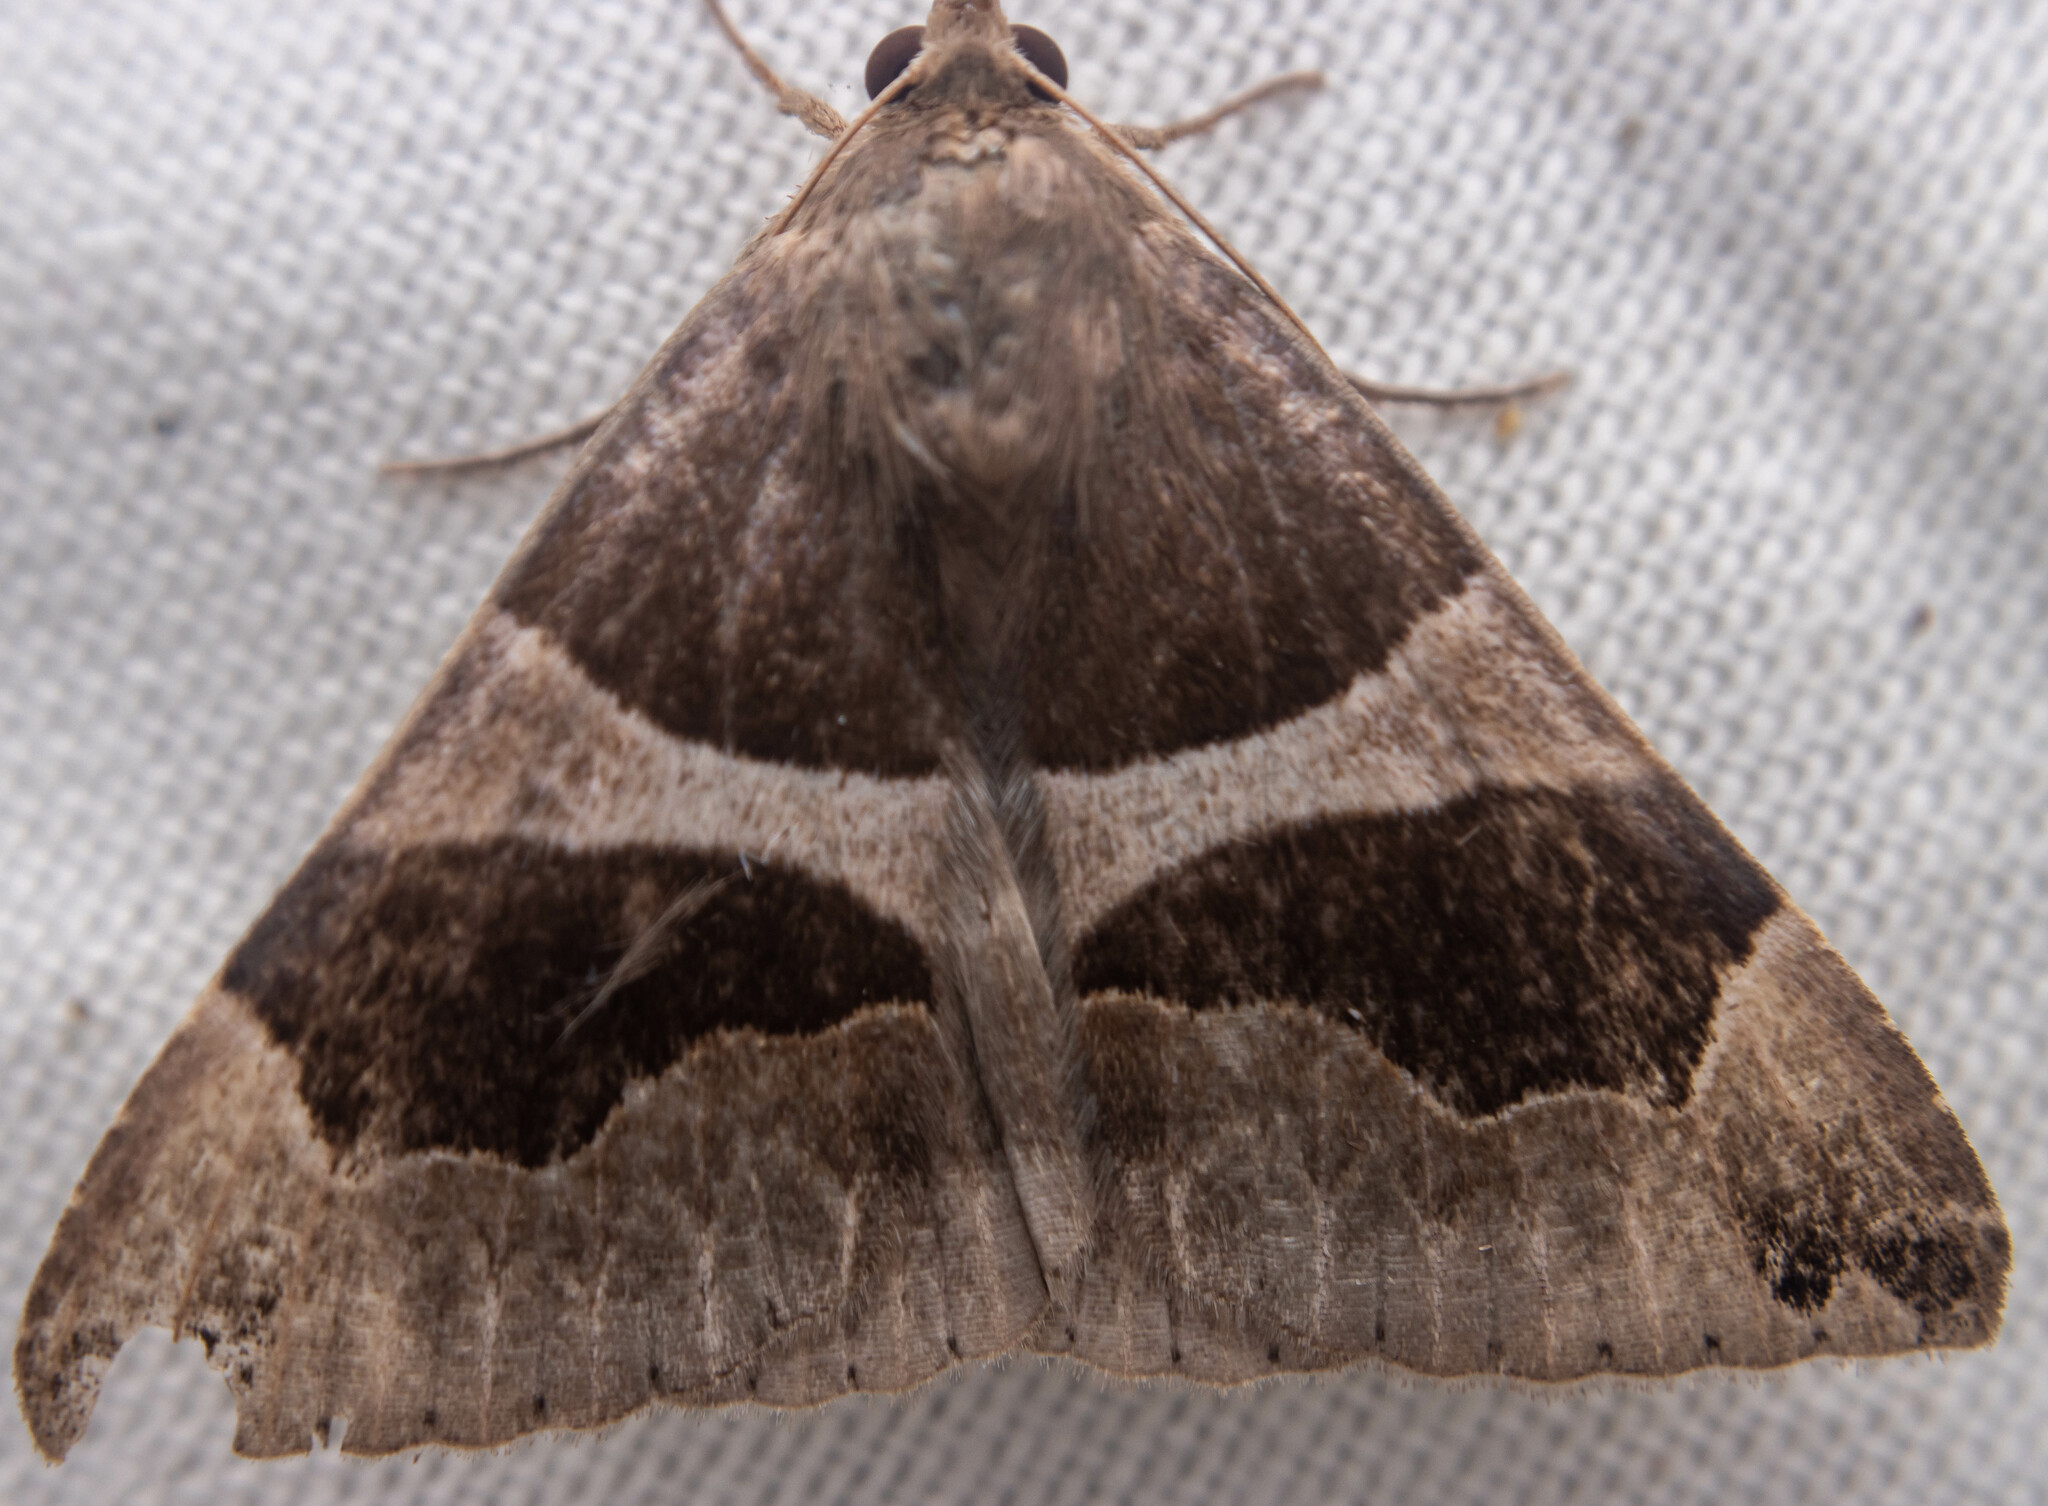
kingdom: Animalia
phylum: Arthropoda
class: Insecta
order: Lepidoptera
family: Erebidae
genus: Dysgonia
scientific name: Dysgonia algira
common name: Passenger
